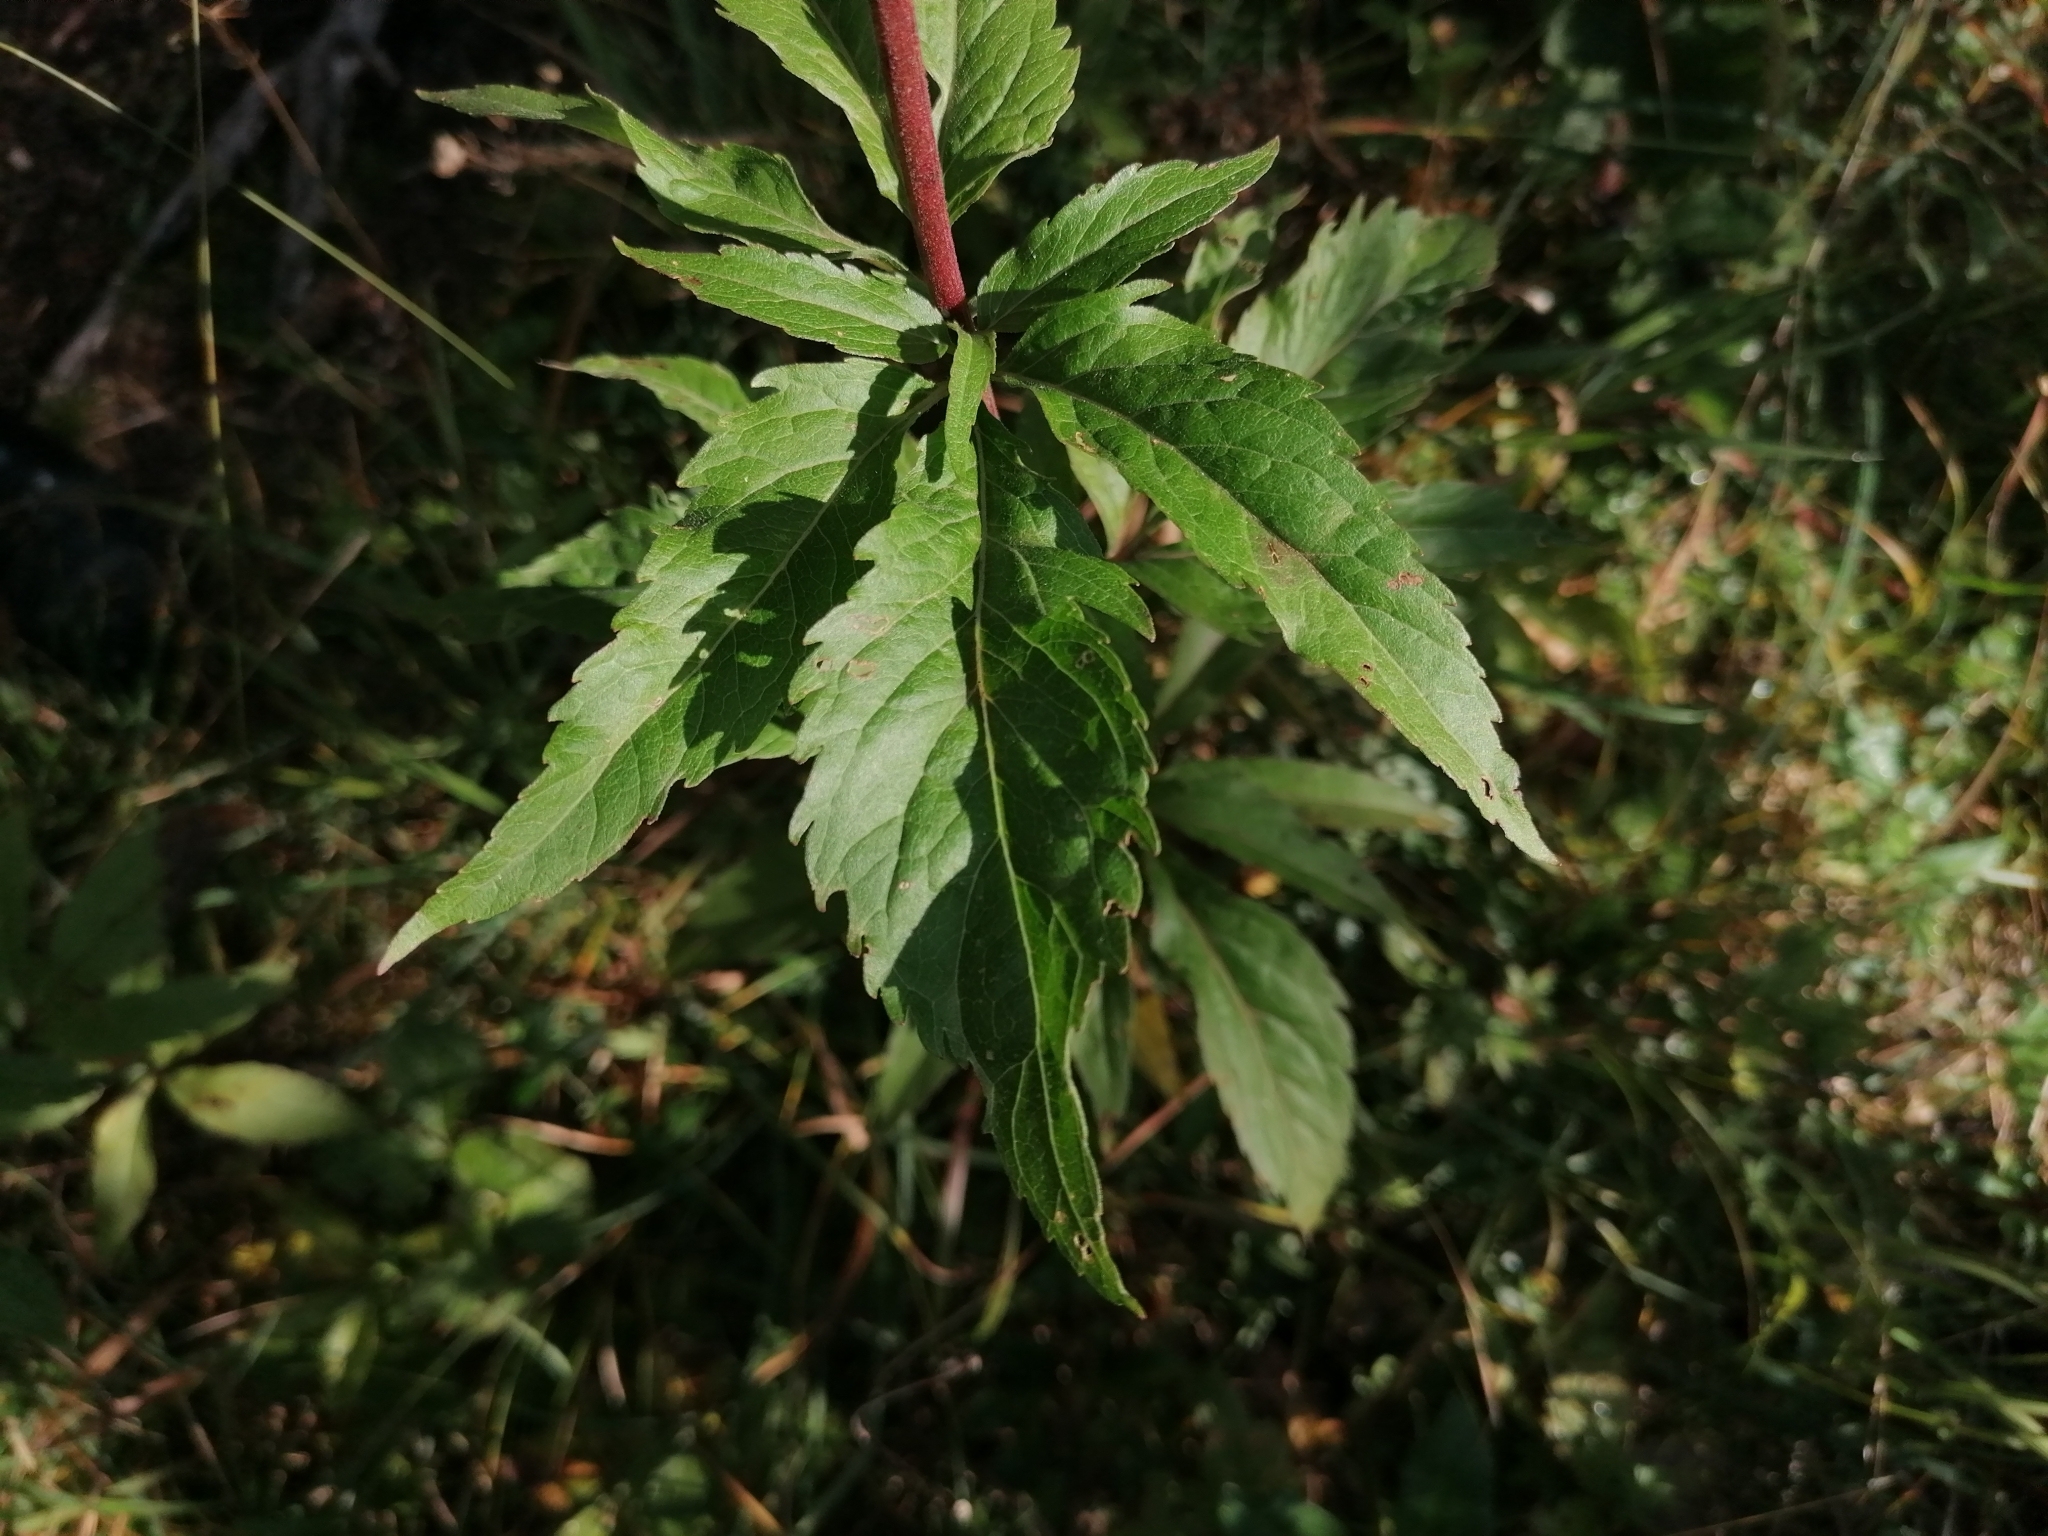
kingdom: Plantae
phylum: Tracheophyta
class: Magnoliopsida
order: Asterales
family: Asteraceae
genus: Eupatorium
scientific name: Eupatorium cannabinum
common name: Hemp-agrimony
